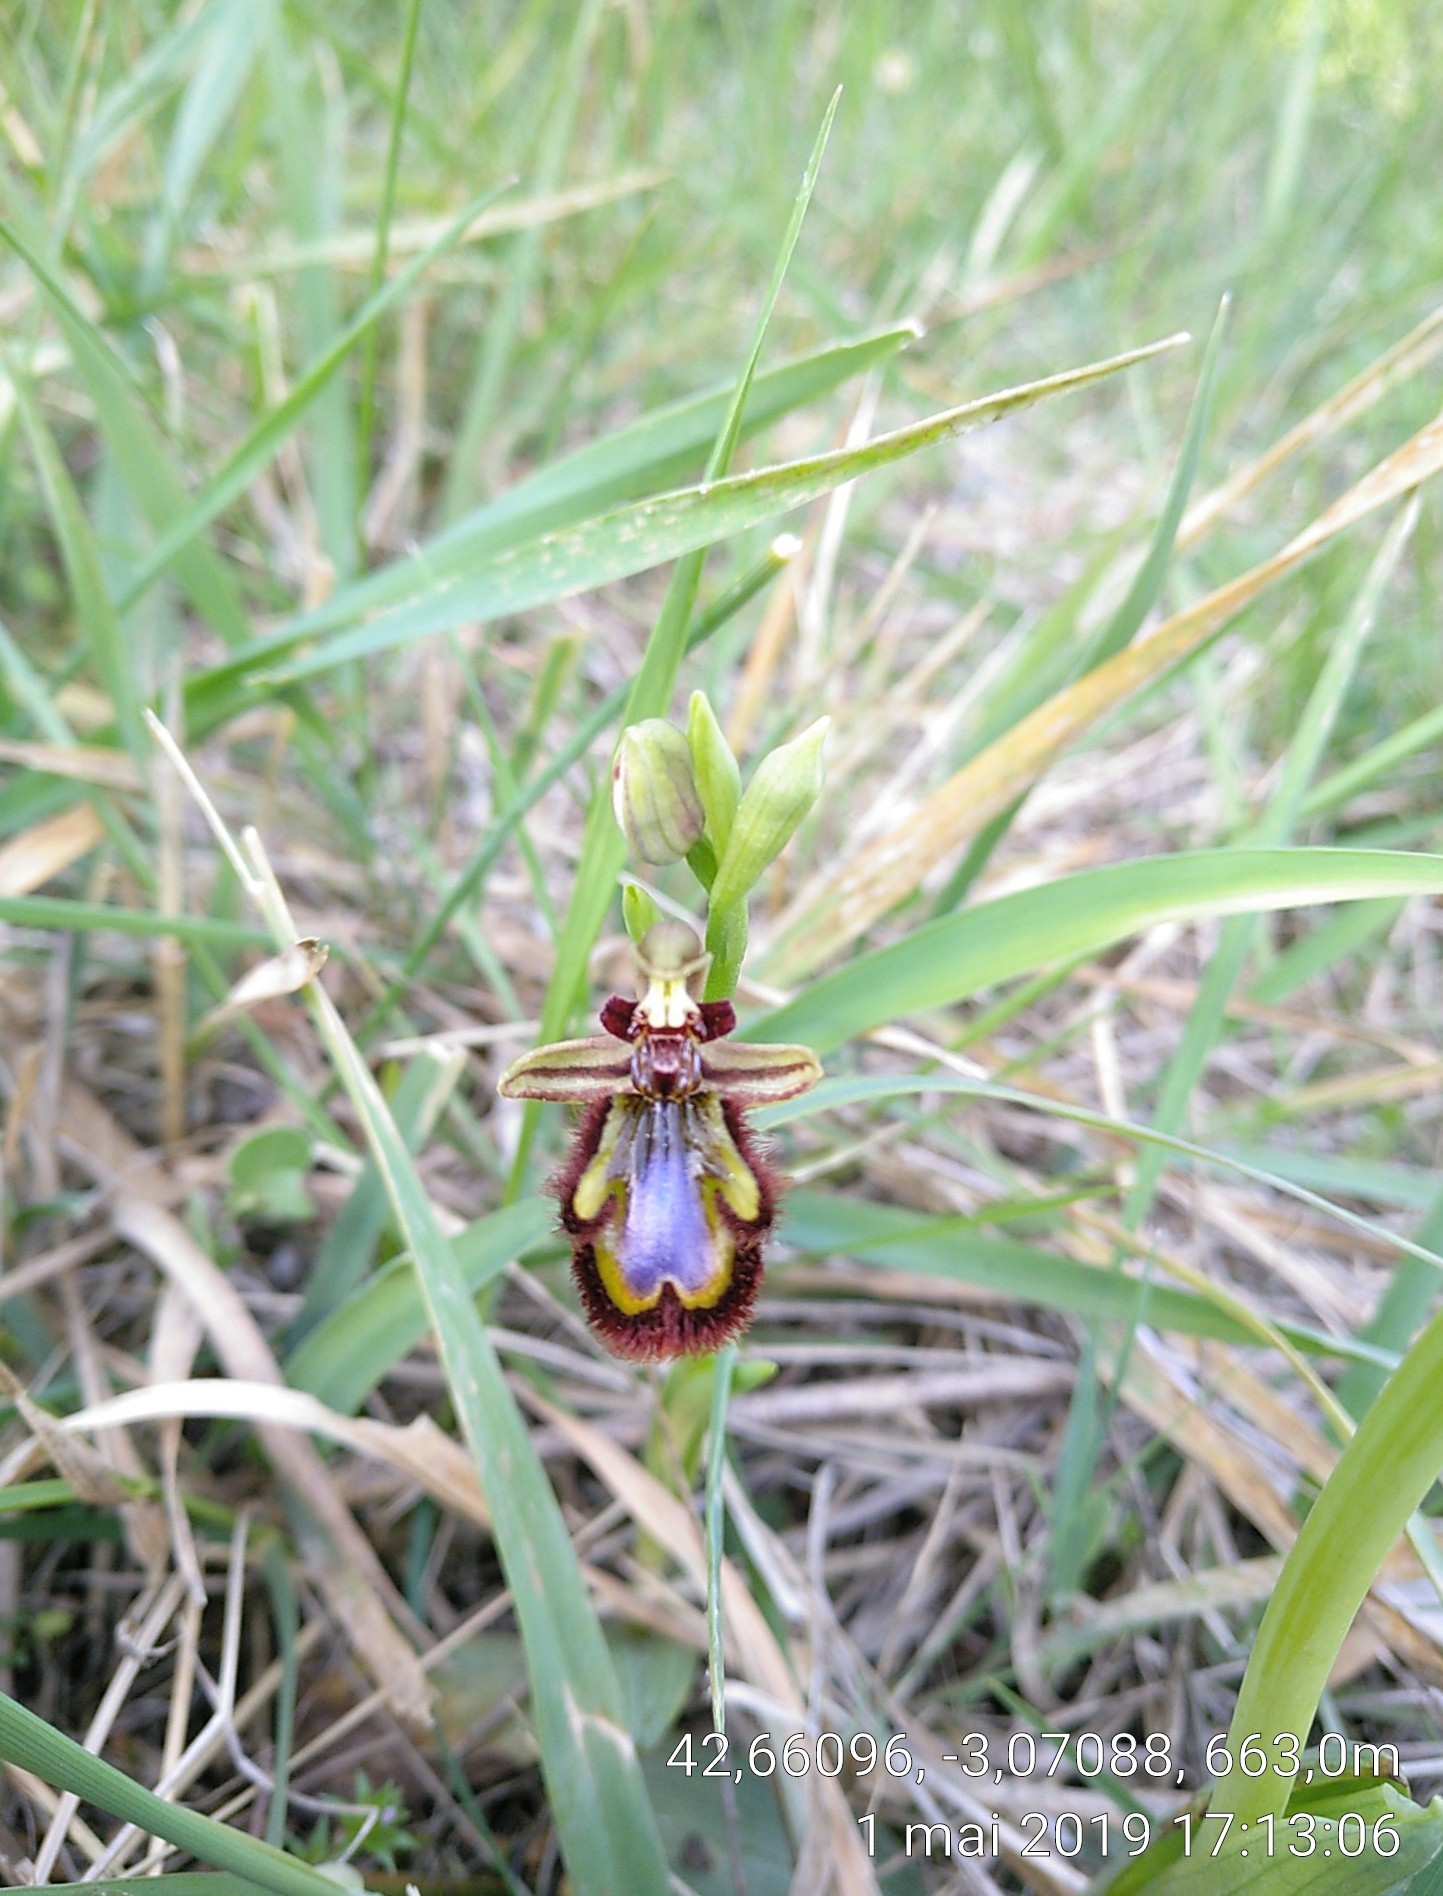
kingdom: Plantae
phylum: Tracheophyta
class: Liliopsida
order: Asparagales
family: Orchidaceae
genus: Ophrys
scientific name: Ophrys speculum
